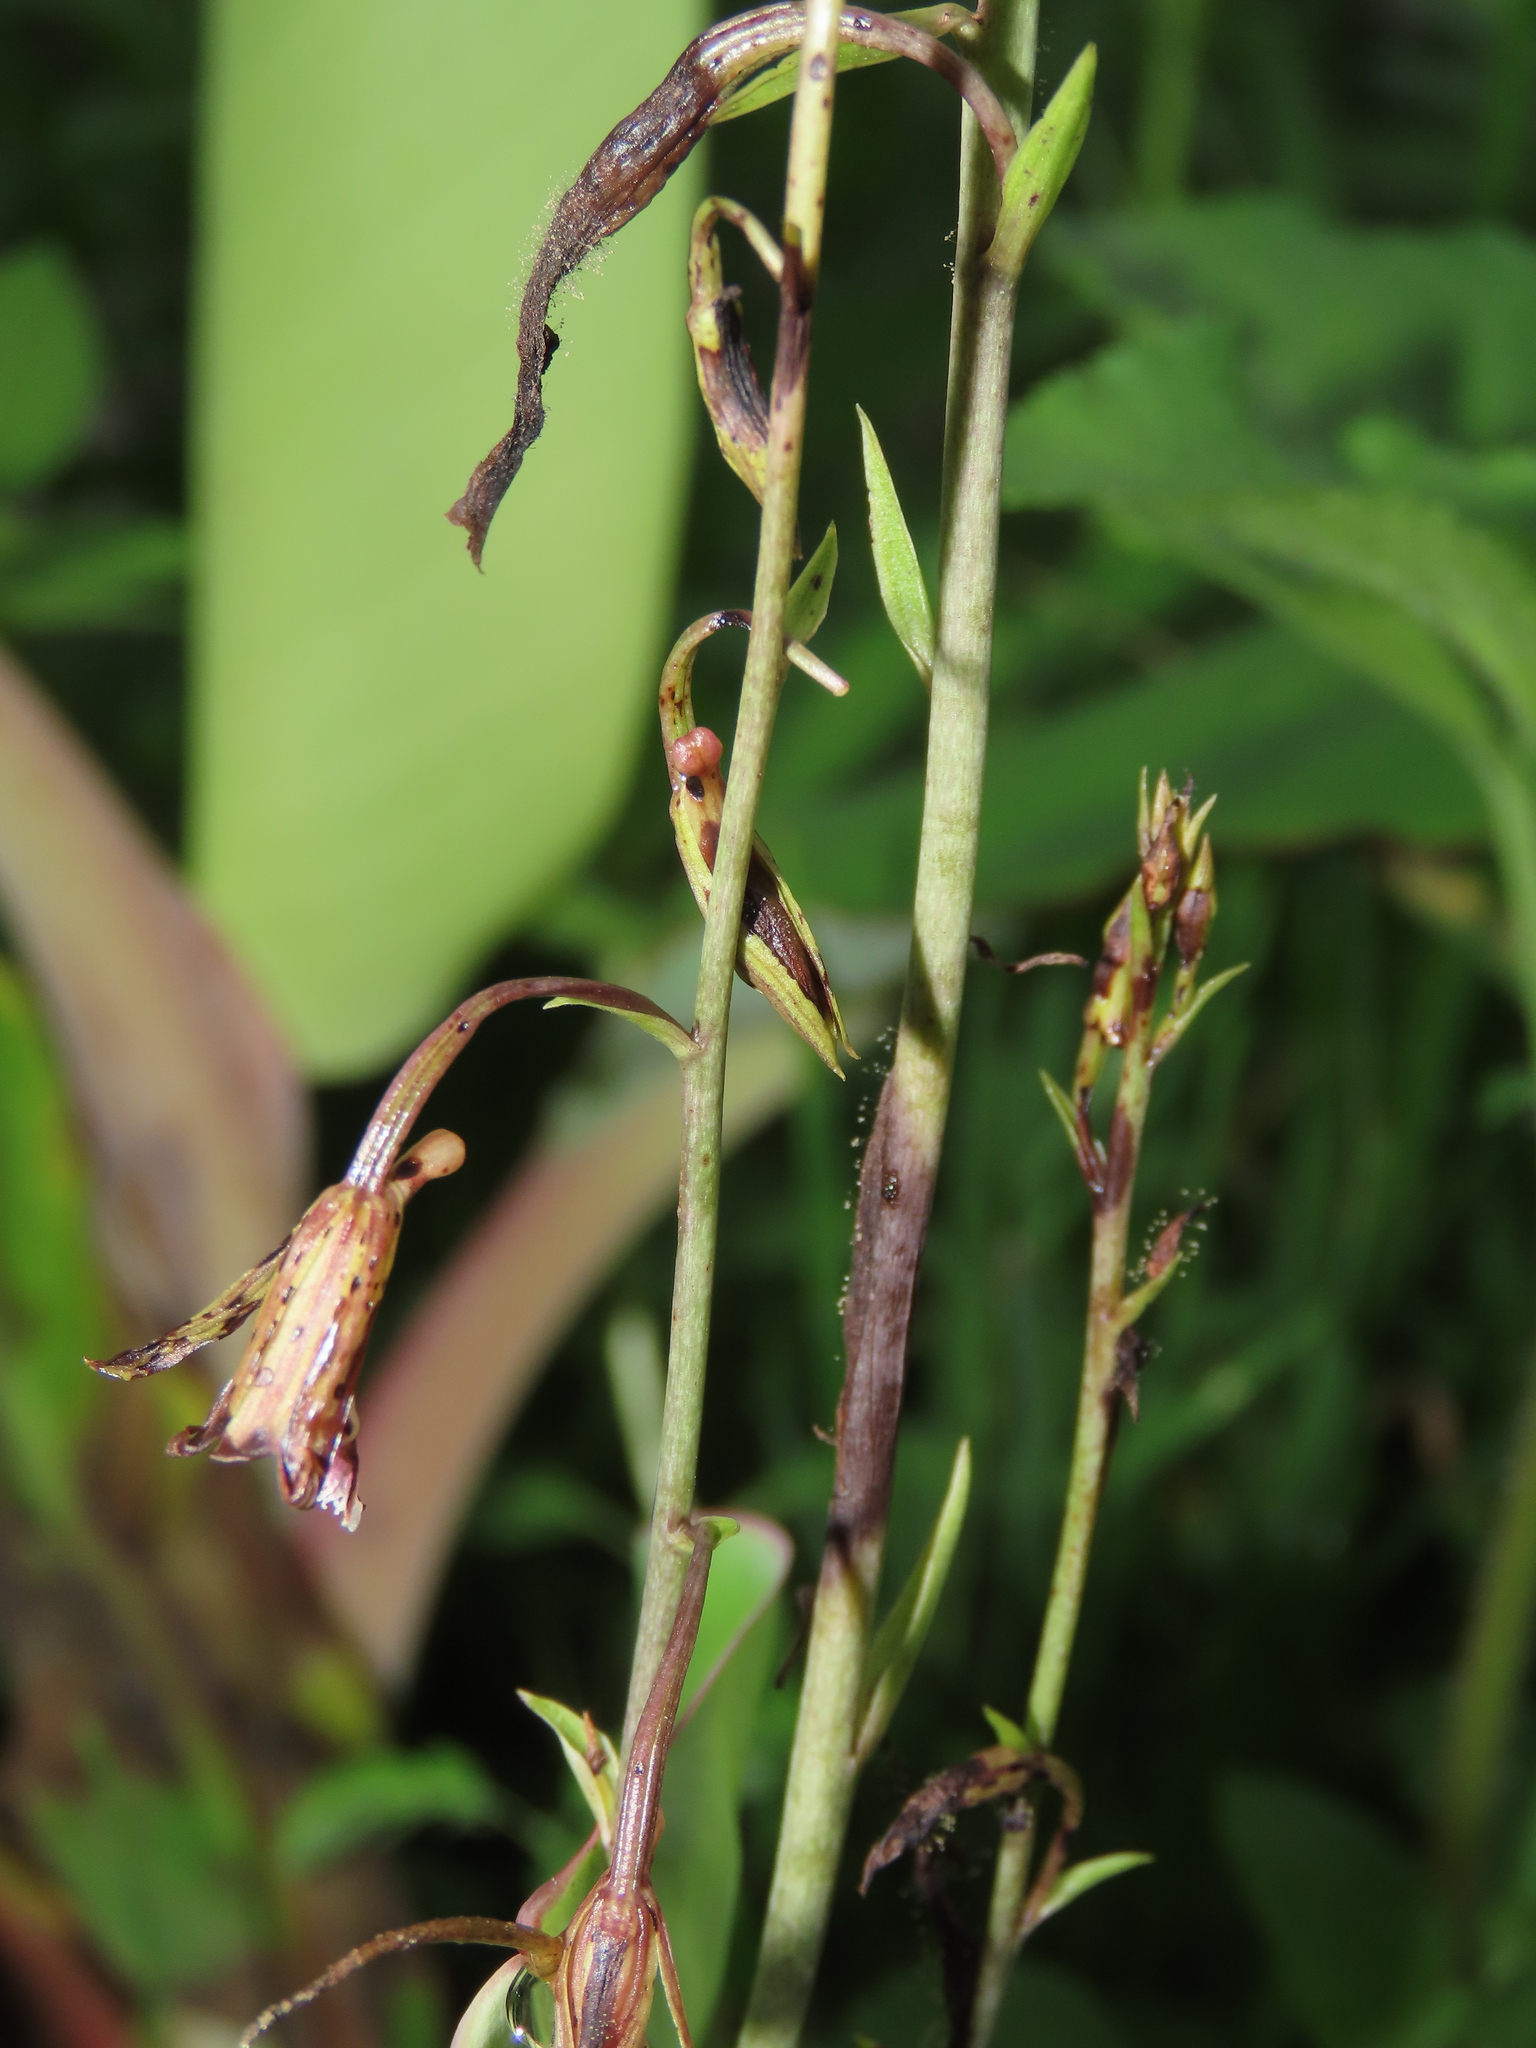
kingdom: Plantae
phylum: Tracheophyta
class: Liliopsida
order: Asparagales
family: Orchidaceae
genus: Eulophia
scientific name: Eulophia graminea
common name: Orchid
